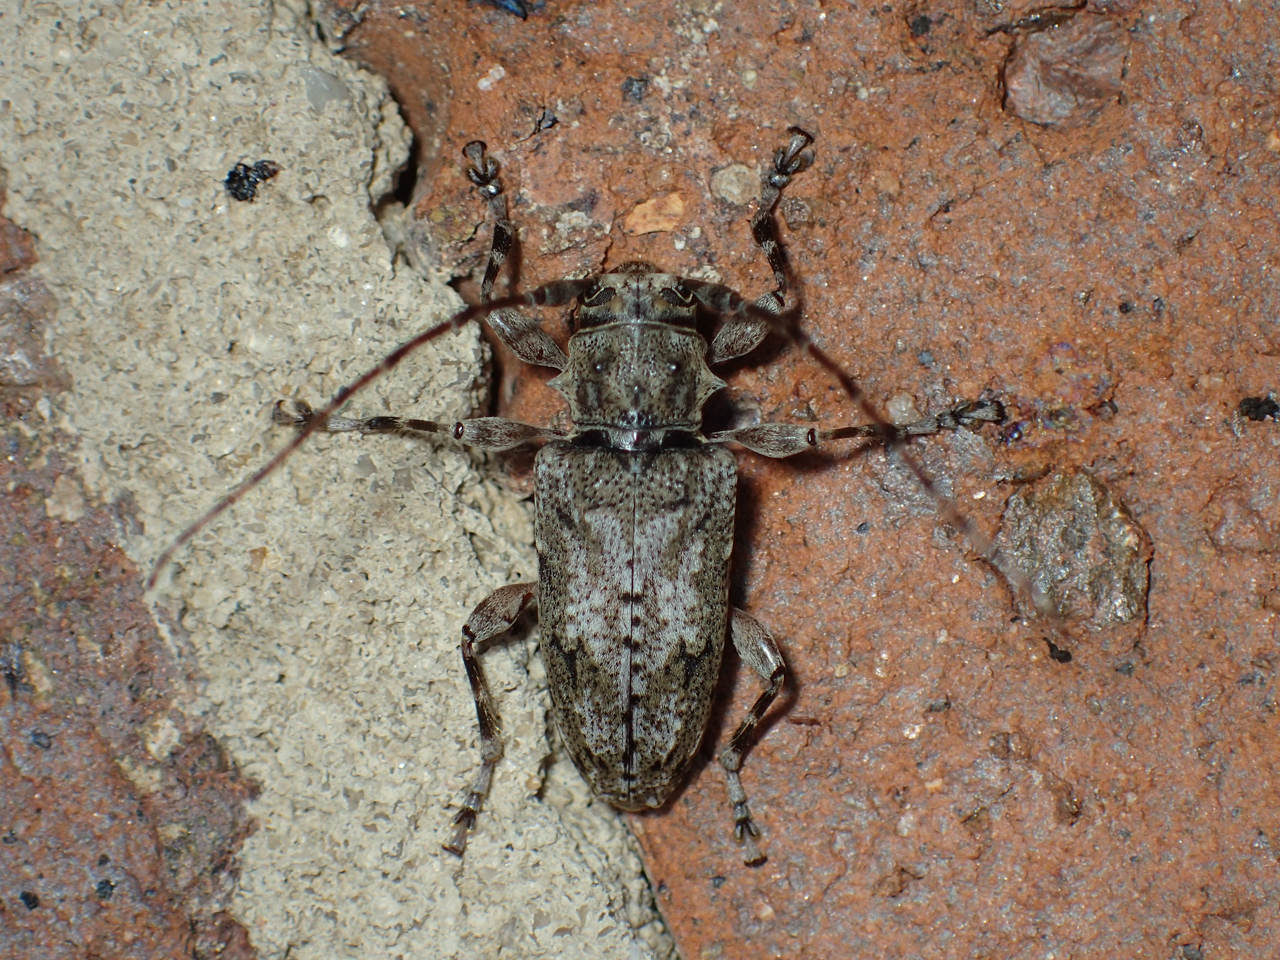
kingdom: Animalia
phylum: Arthropoda
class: Insecta
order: Coleoptera
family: Cerambycidae
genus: Aegomorphus
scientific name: Aegomorphus modestus
